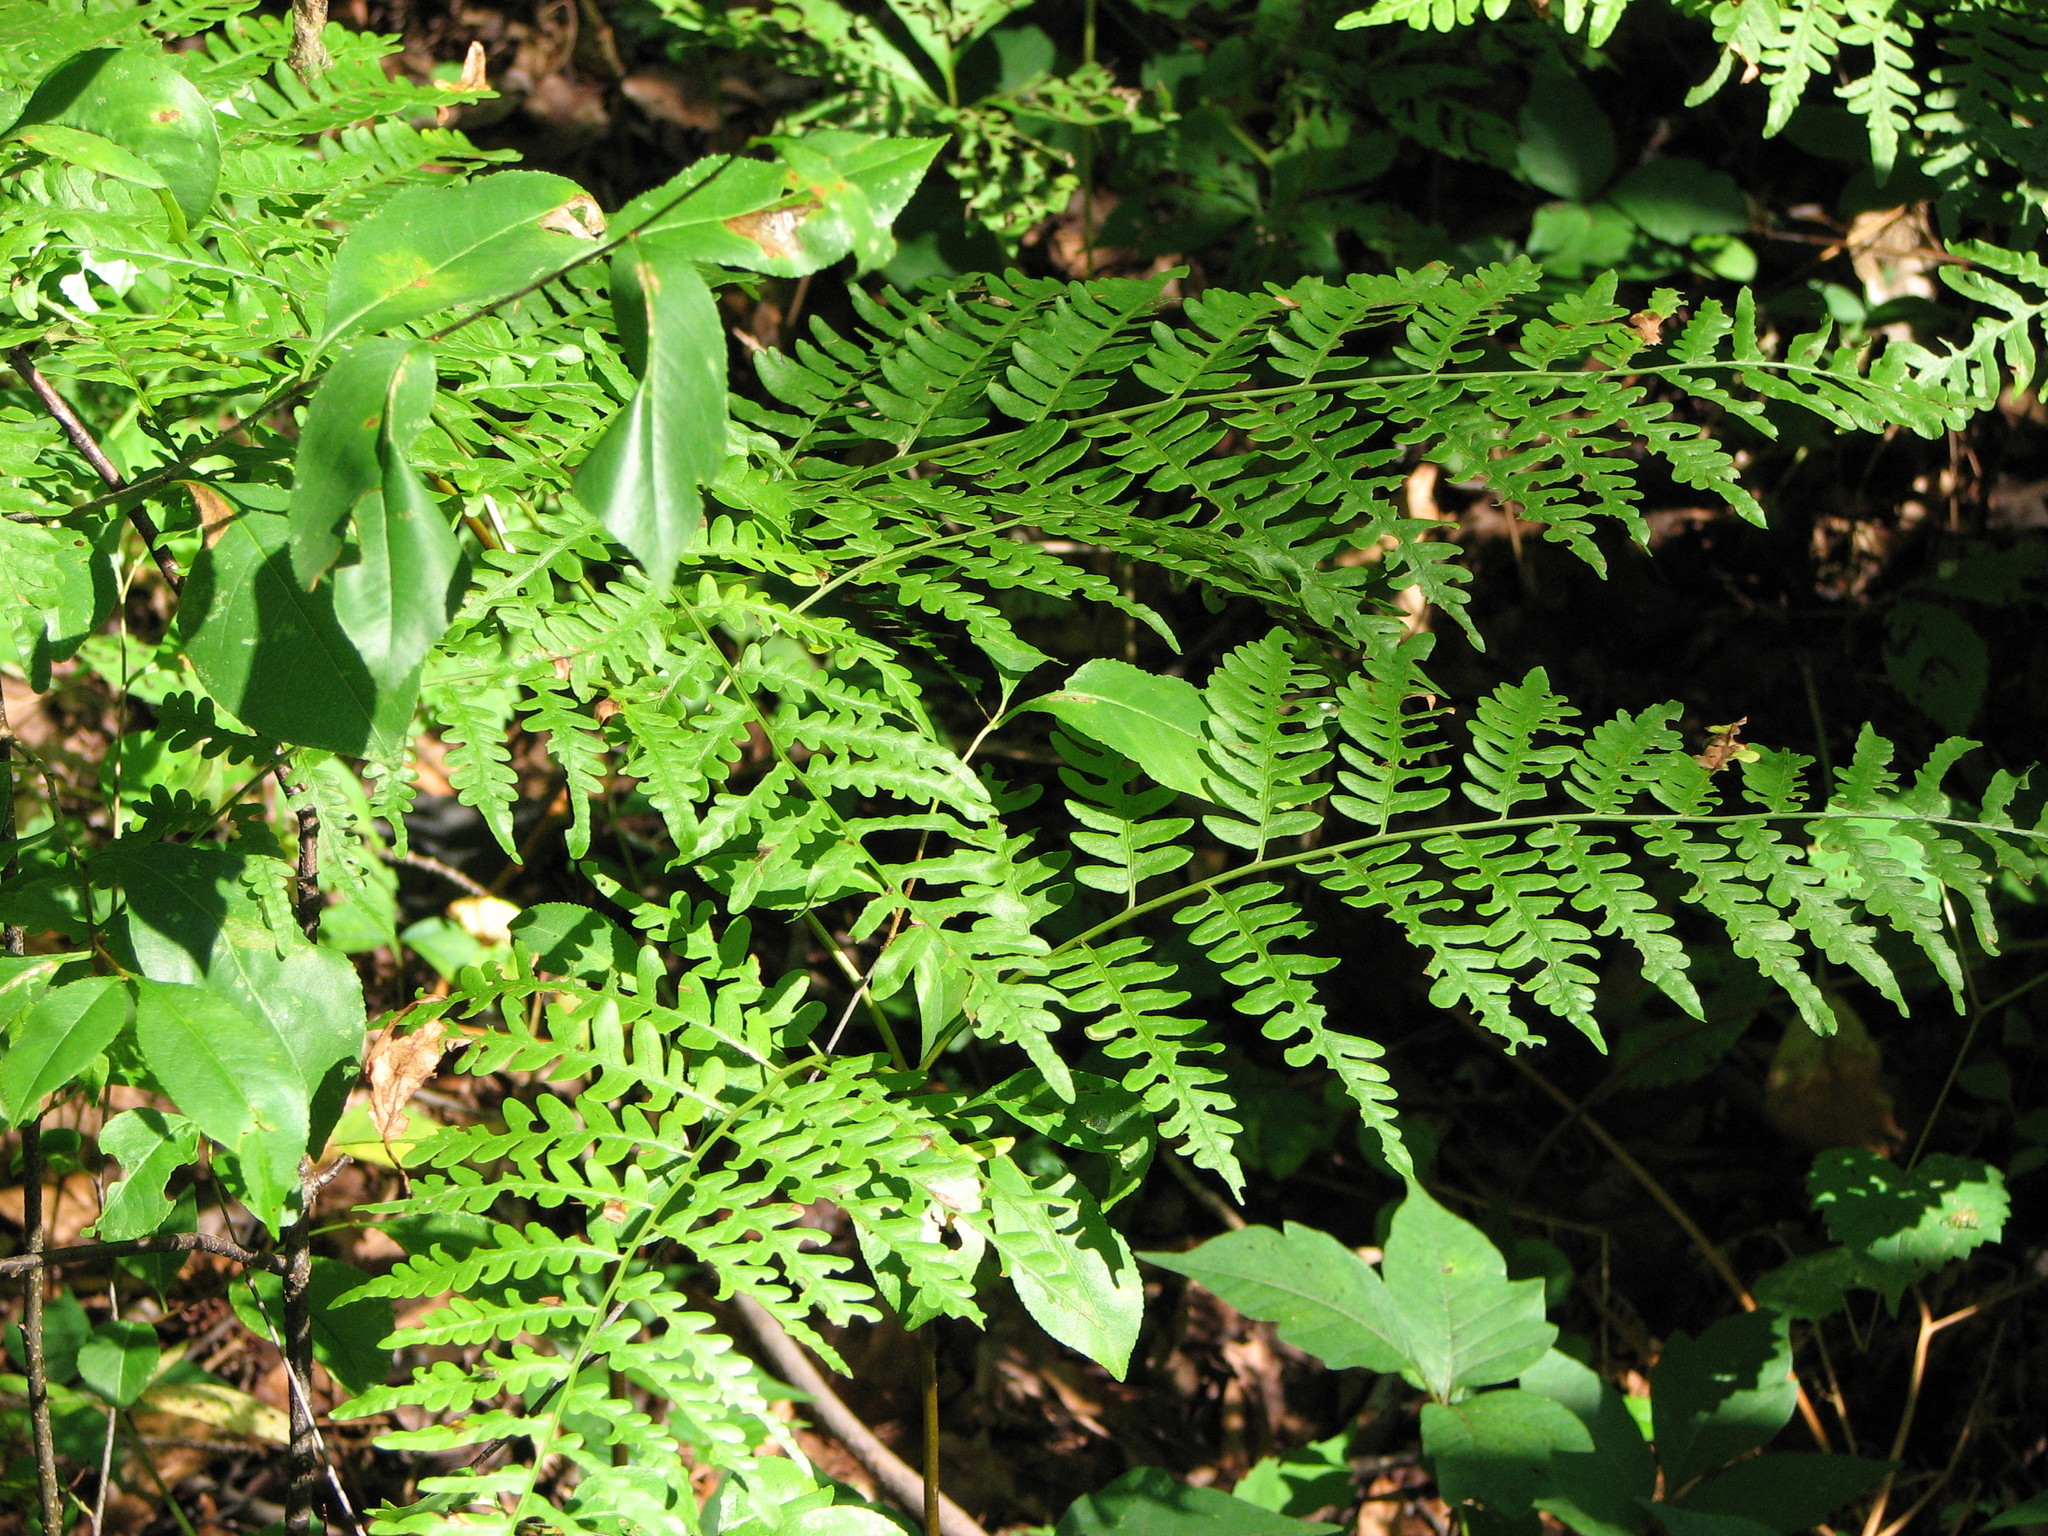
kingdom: Plantae
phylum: Tracheophyta
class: Polypodiopsida
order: Polypodiales
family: Dennstaedtiaceae
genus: Pteridium
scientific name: Pteridium aquilinum
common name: Bracken
